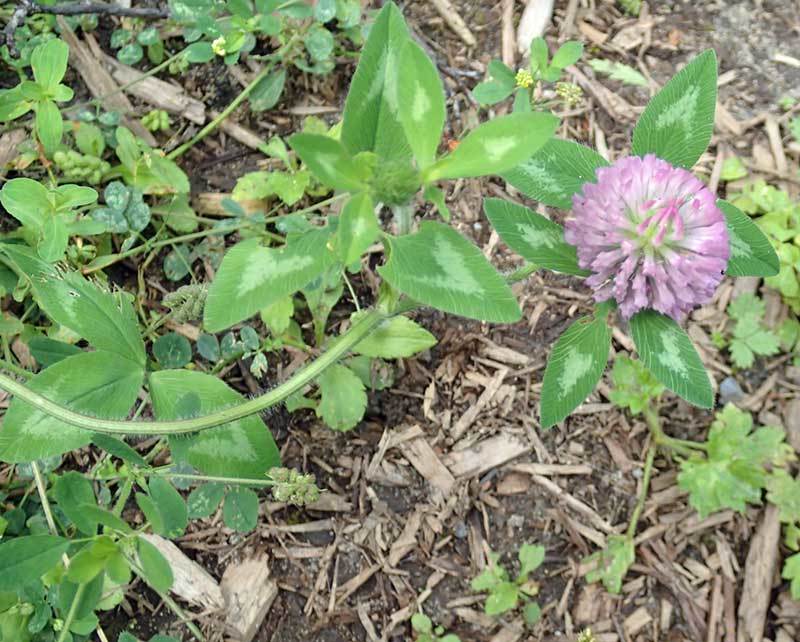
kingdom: Plantae
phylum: Tracheophyta
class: Magnoliopsida
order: Fabales
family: Fabaceae
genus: Trifolium
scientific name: Trifolium pratense
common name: Red clover
